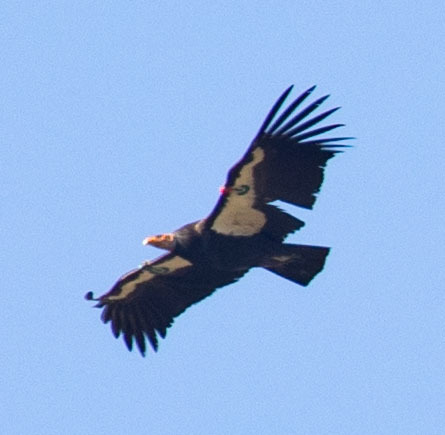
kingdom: Animalia
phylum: Chordata
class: Aves
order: Accipitriformes
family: Cathartidae
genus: Gymnogyps
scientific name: Gymnogyps californianus
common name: California condor
